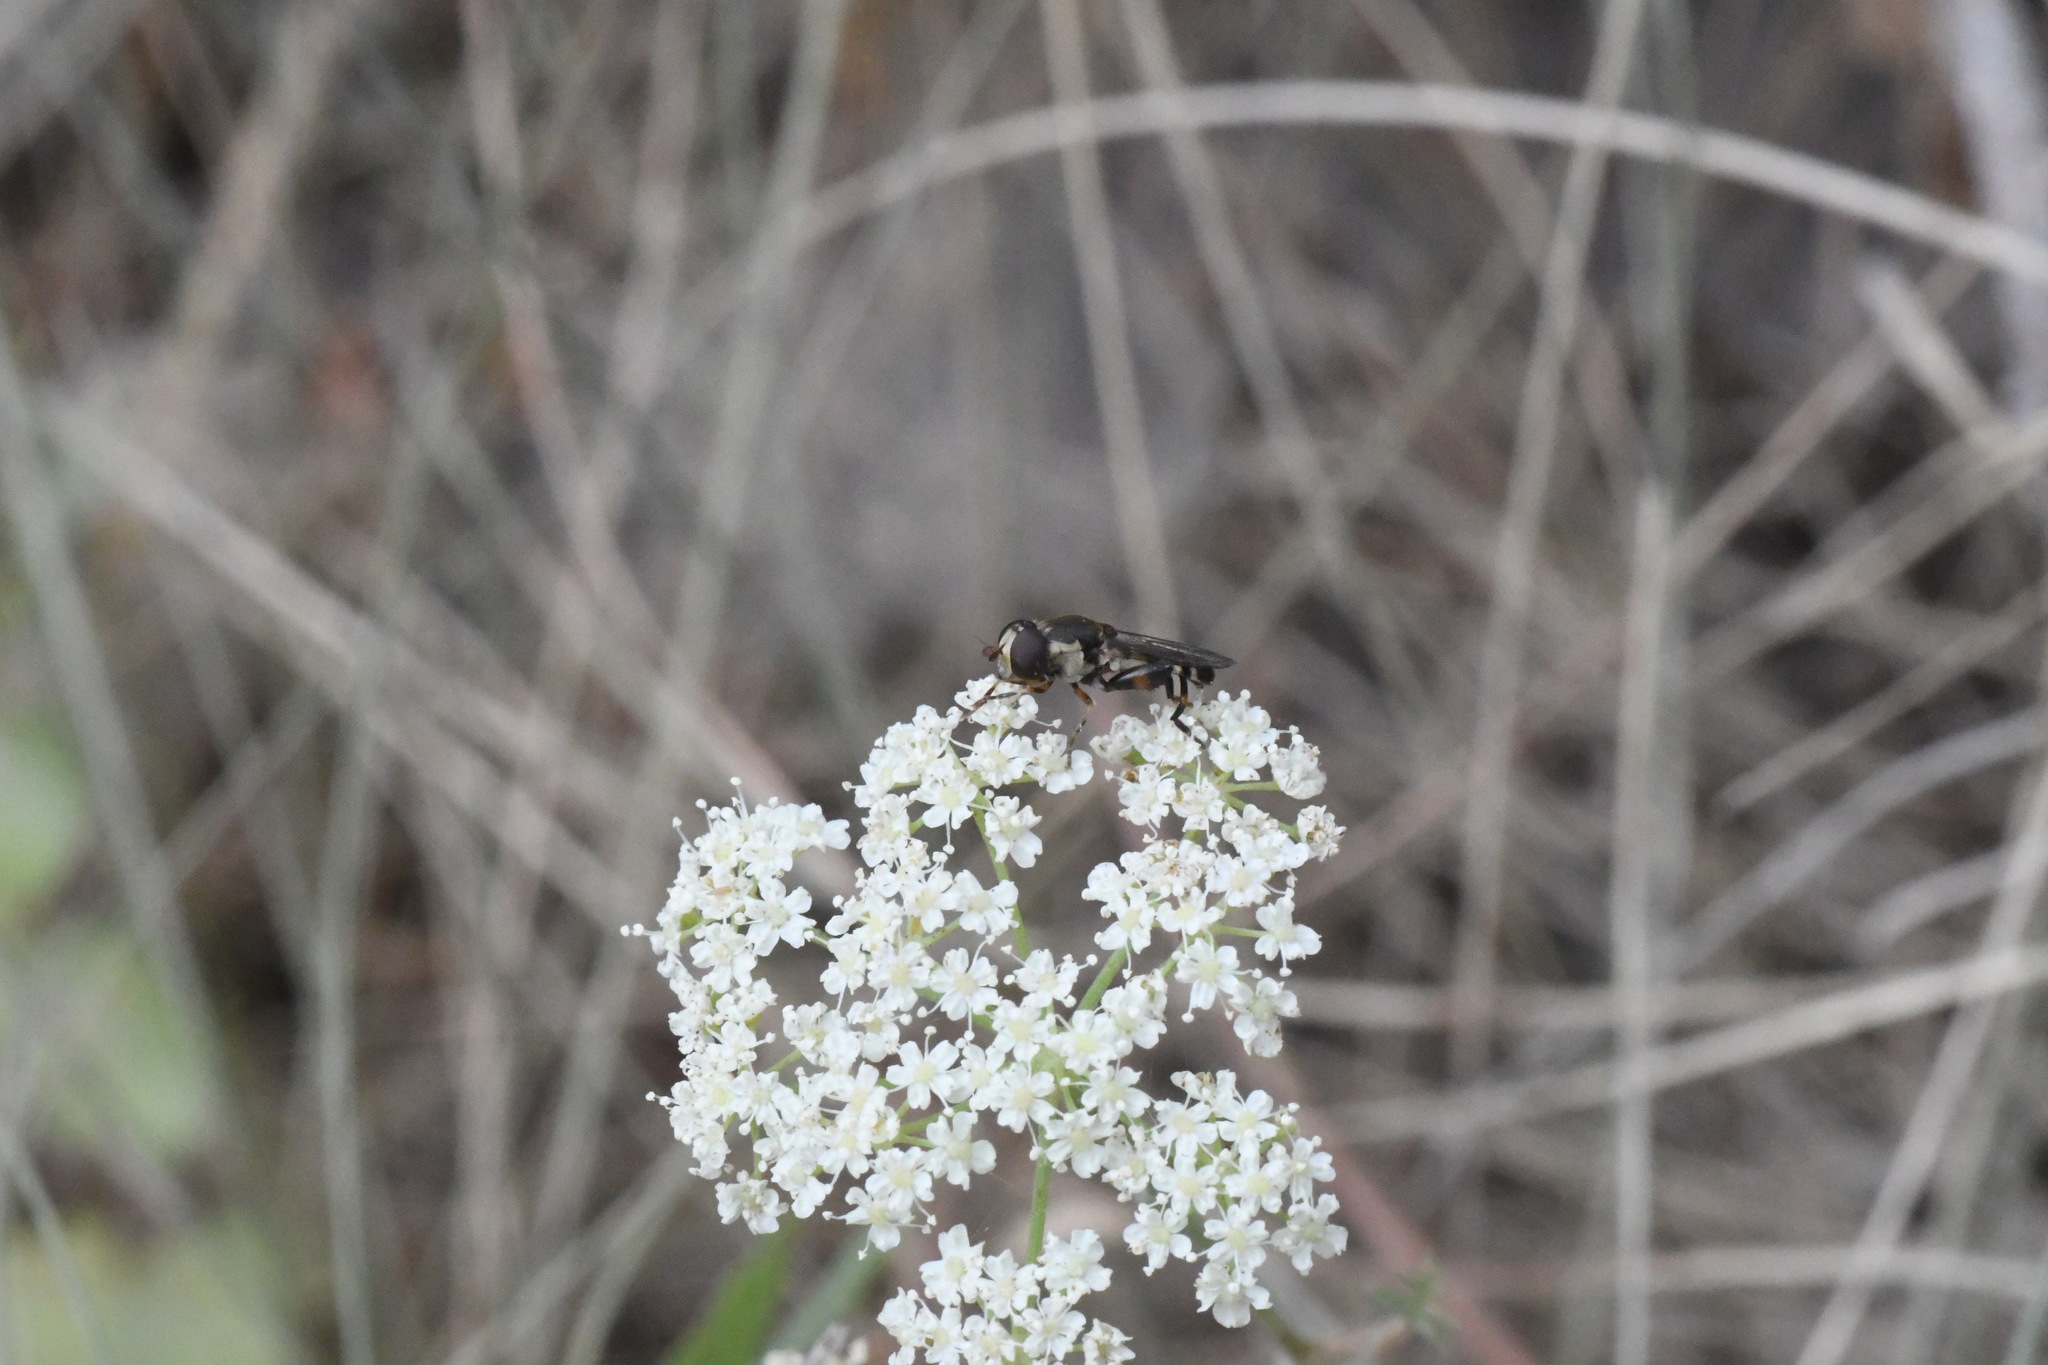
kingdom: Animalia
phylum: Arthropoda
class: Insecta
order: Diptera
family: Syrphidae
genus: Syritta
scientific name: Syritta pipiens
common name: Hover fly
